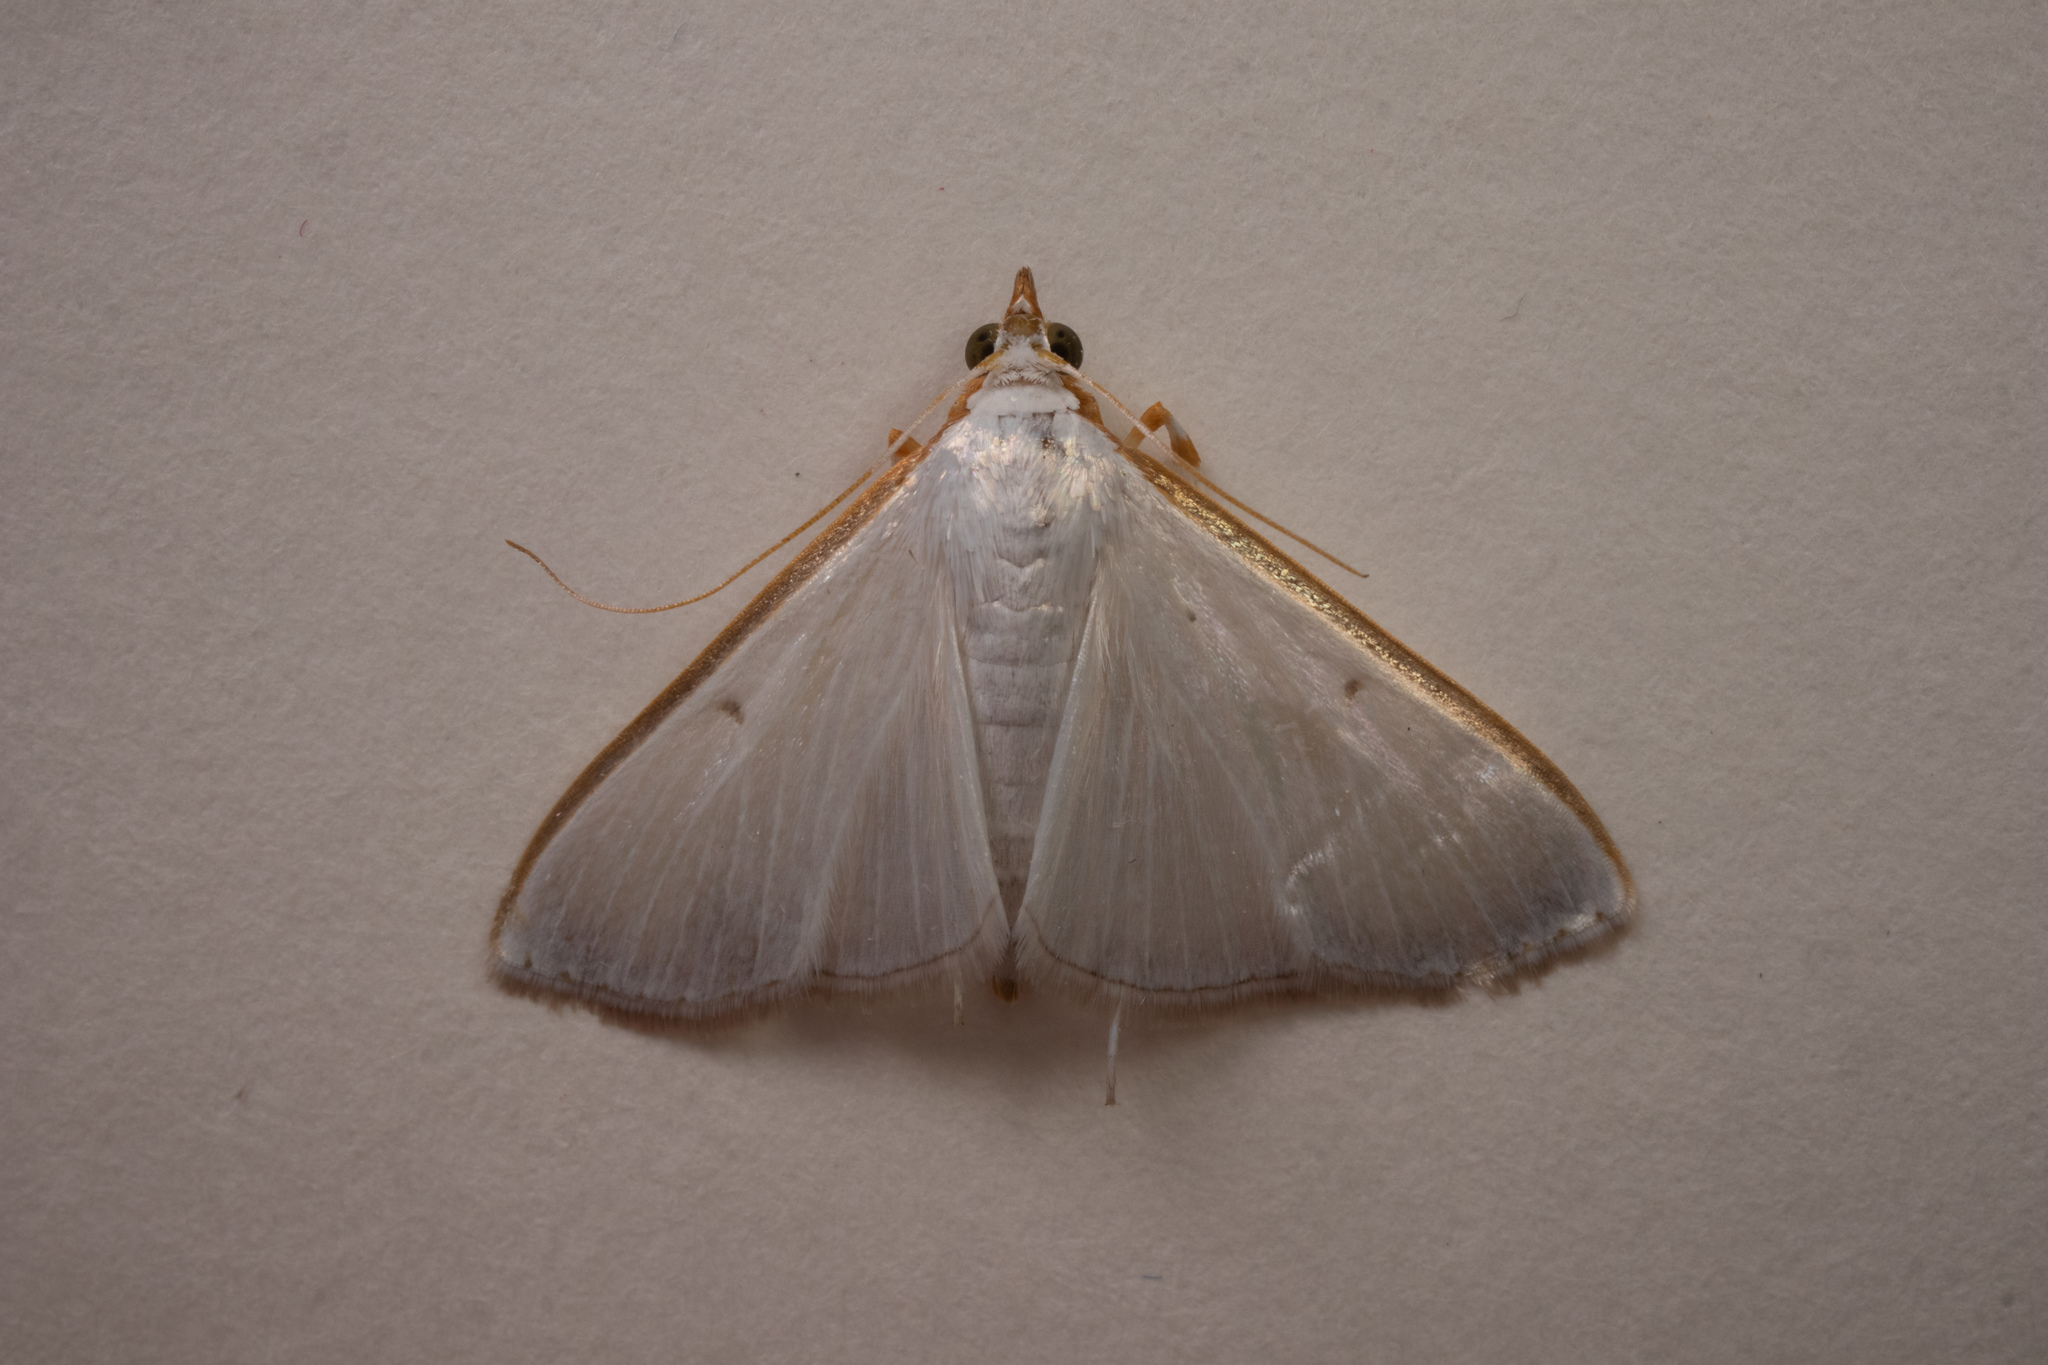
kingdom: Animalia
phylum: Arthropoda
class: Insecta
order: Lepidoptera
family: Crambidae
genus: Diaphania
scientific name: Diaphania costata
